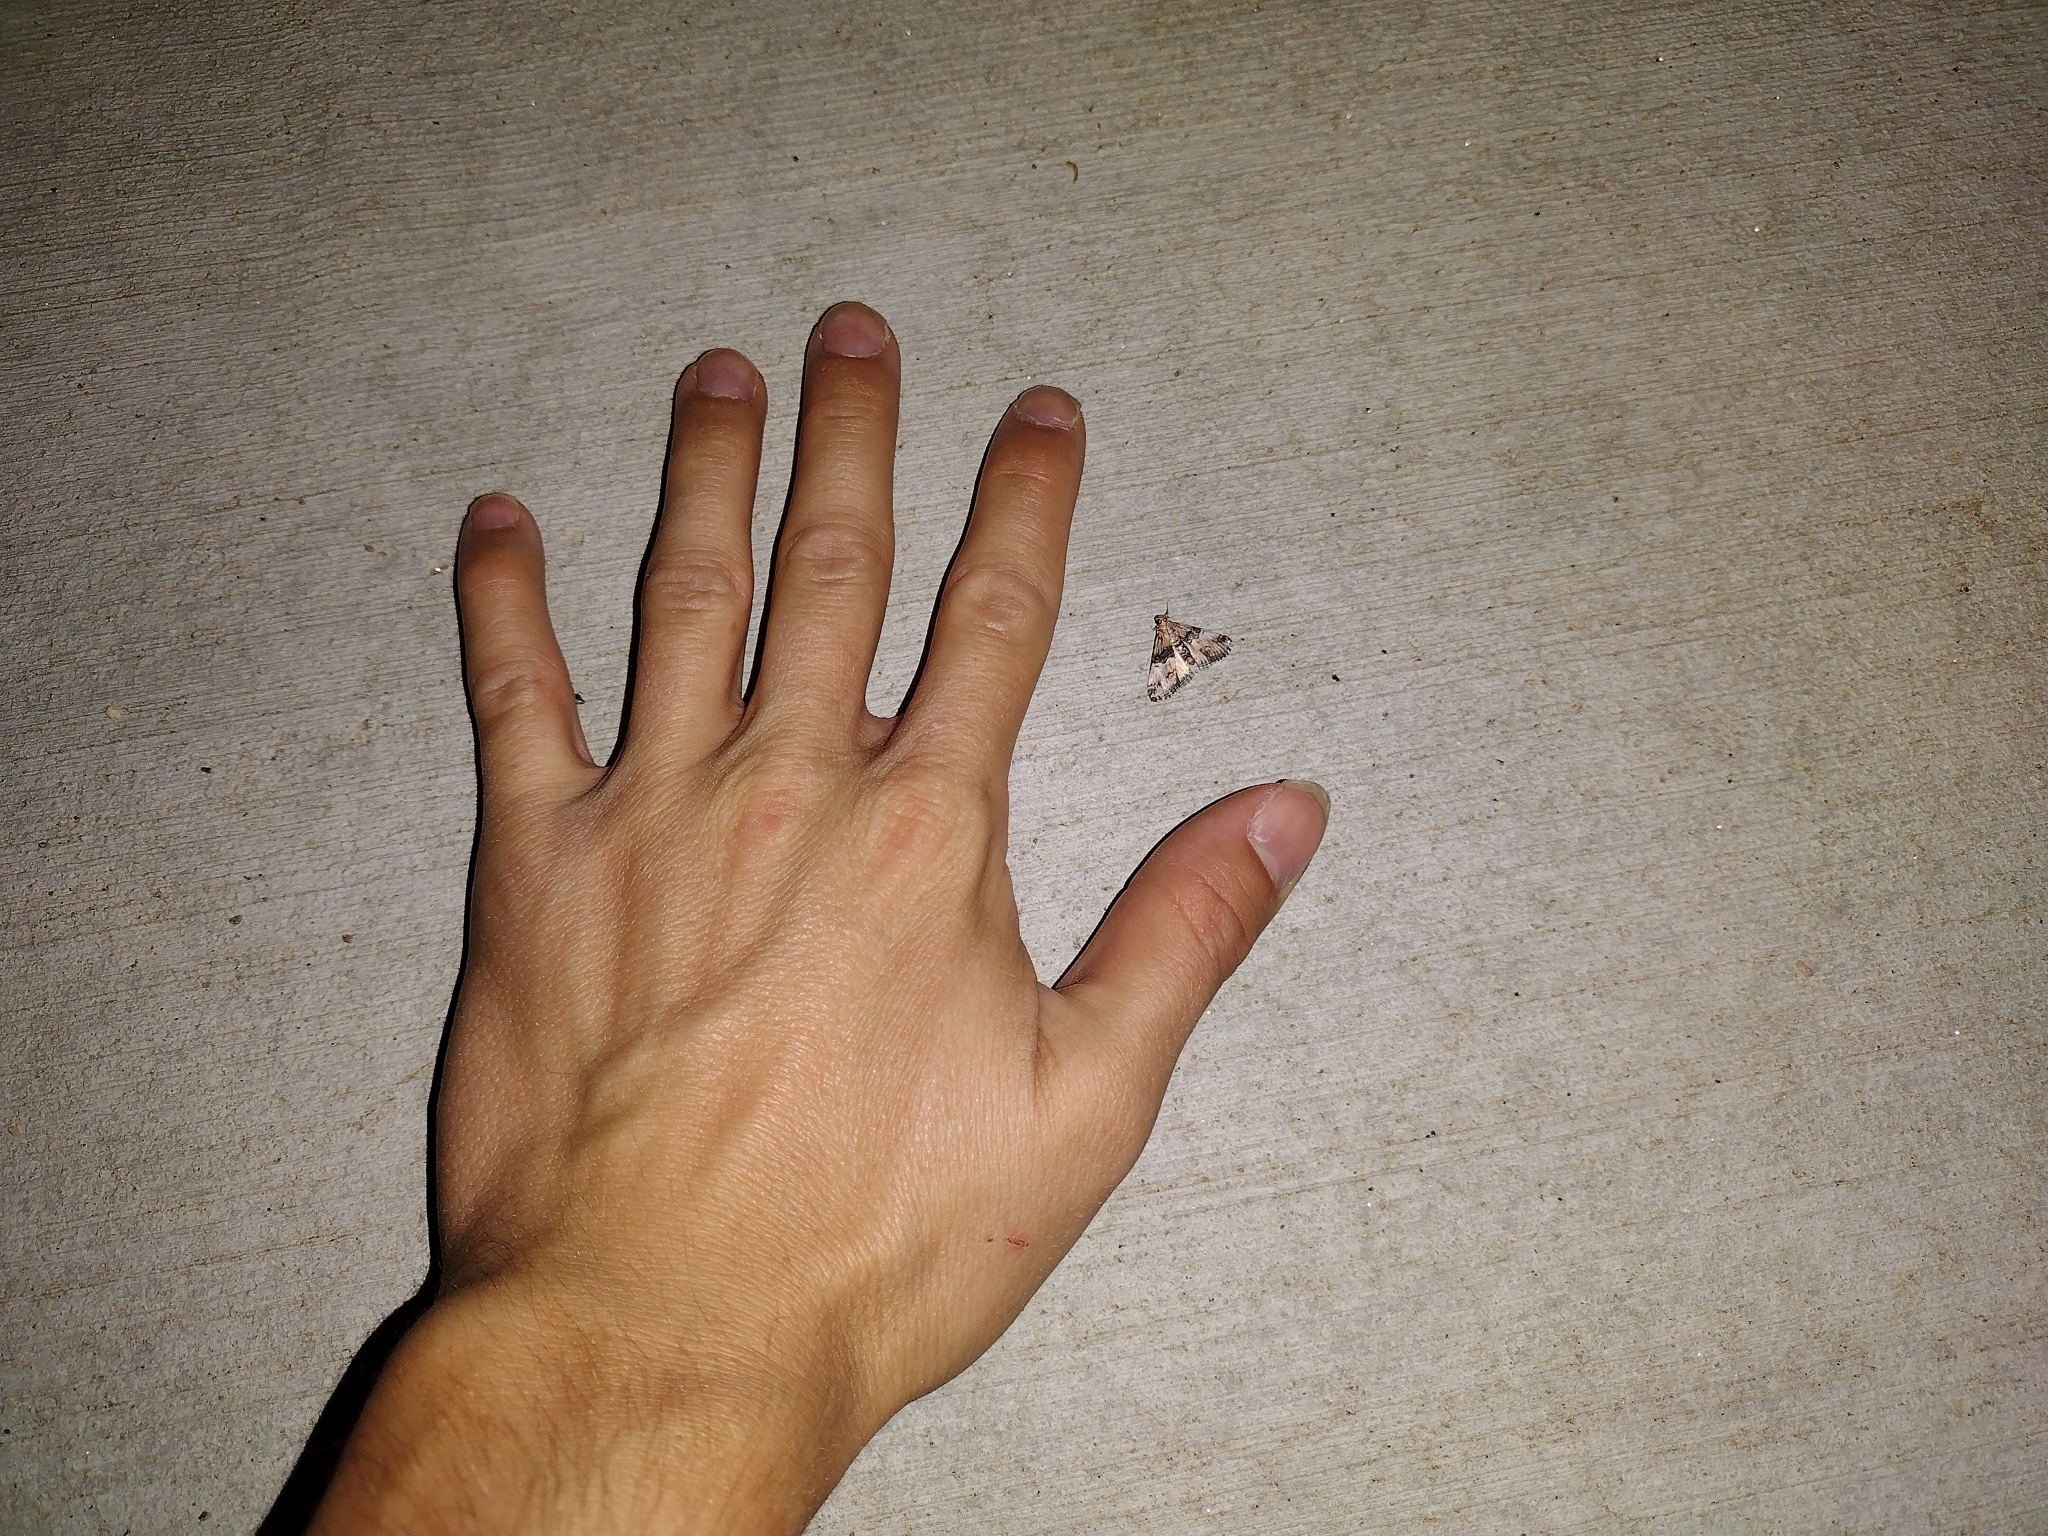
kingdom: Animalia
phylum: Arthropoda
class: Insecta
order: Lepidoptera
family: Pyralidae
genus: Toripalpus
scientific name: Toripalpus trabalis
